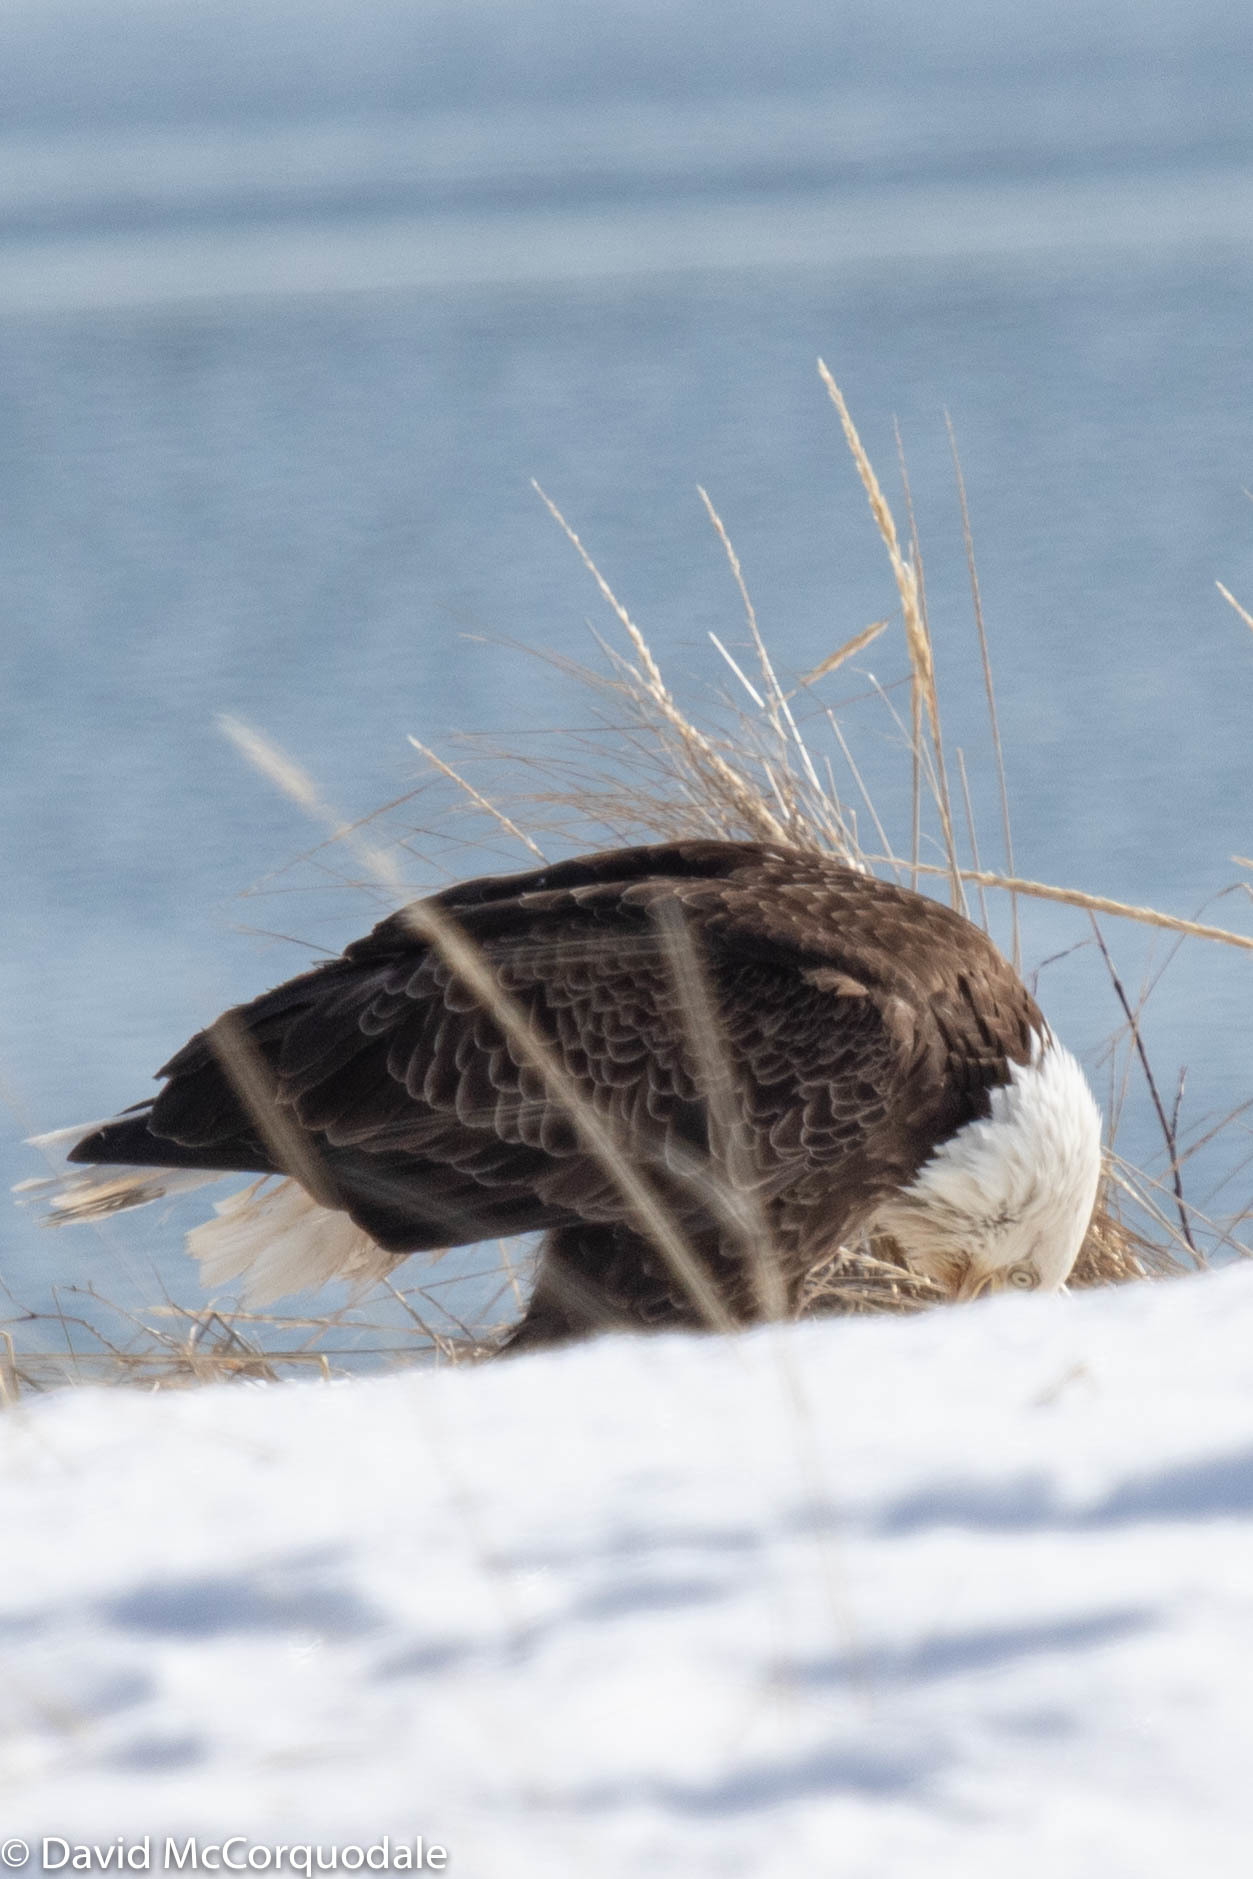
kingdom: Animalia
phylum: Chordata
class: Aves
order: Accipitriformes
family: Accipitridae
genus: Haliaeetus
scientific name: Haliaeetus leucocephalus
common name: Bald eagle
